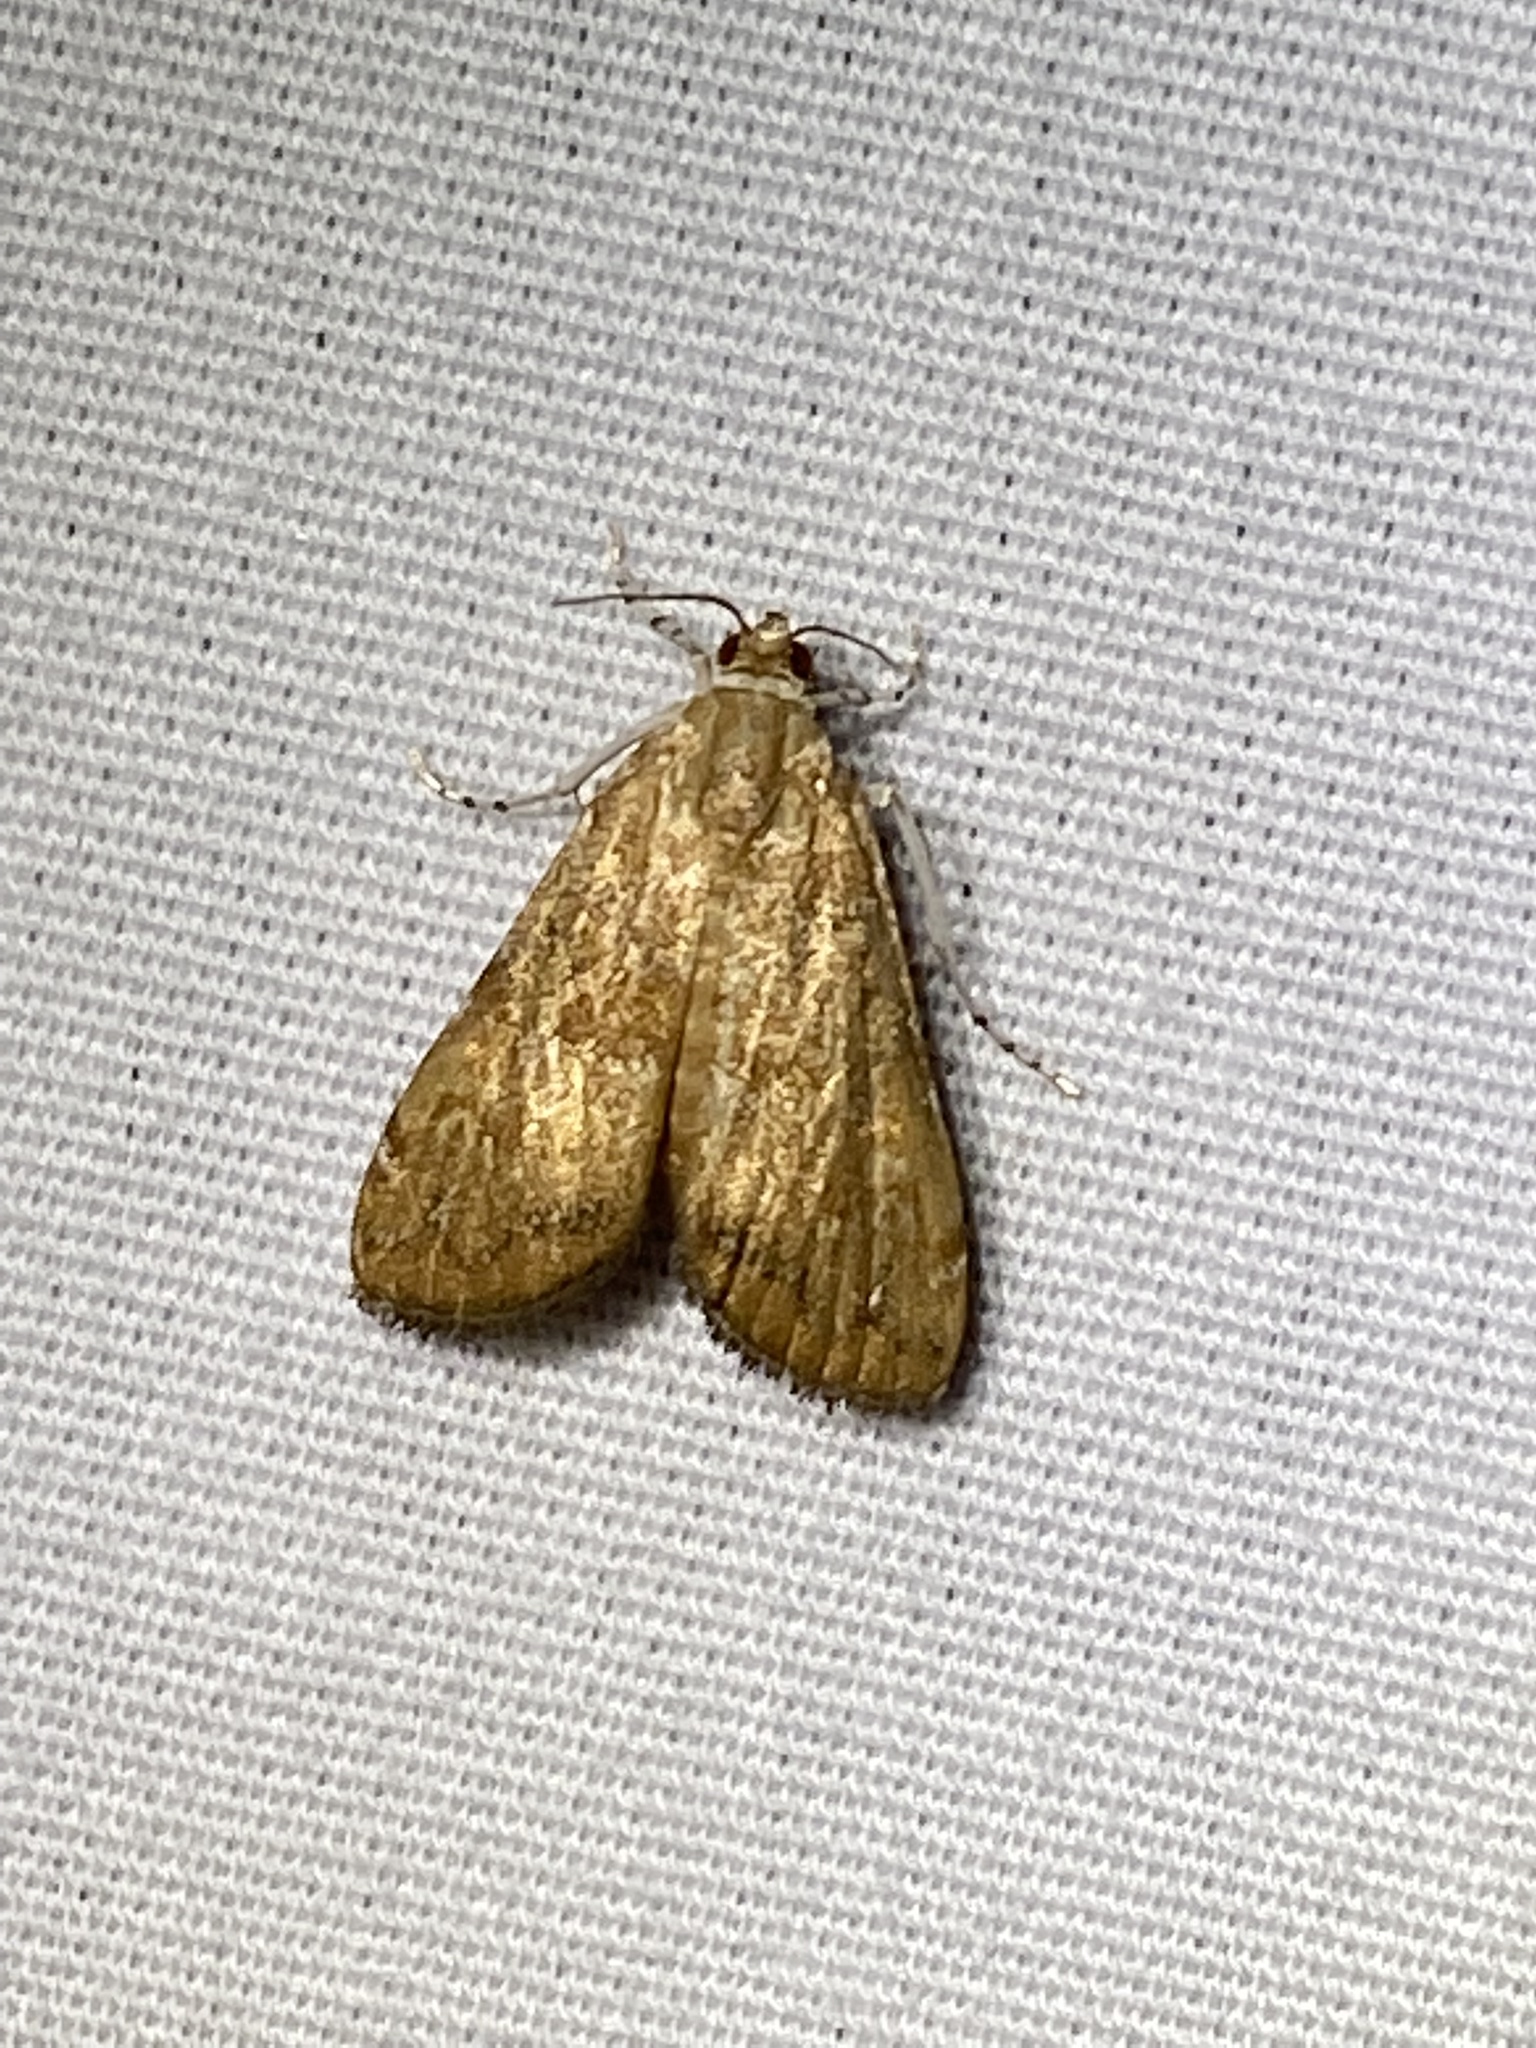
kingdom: Animalia
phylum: Arthropoda
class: Insecta
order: Lepidoptera
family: Crambidae
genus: Elophila
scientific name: Elophila gyralis
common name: Waterlily borer moth
